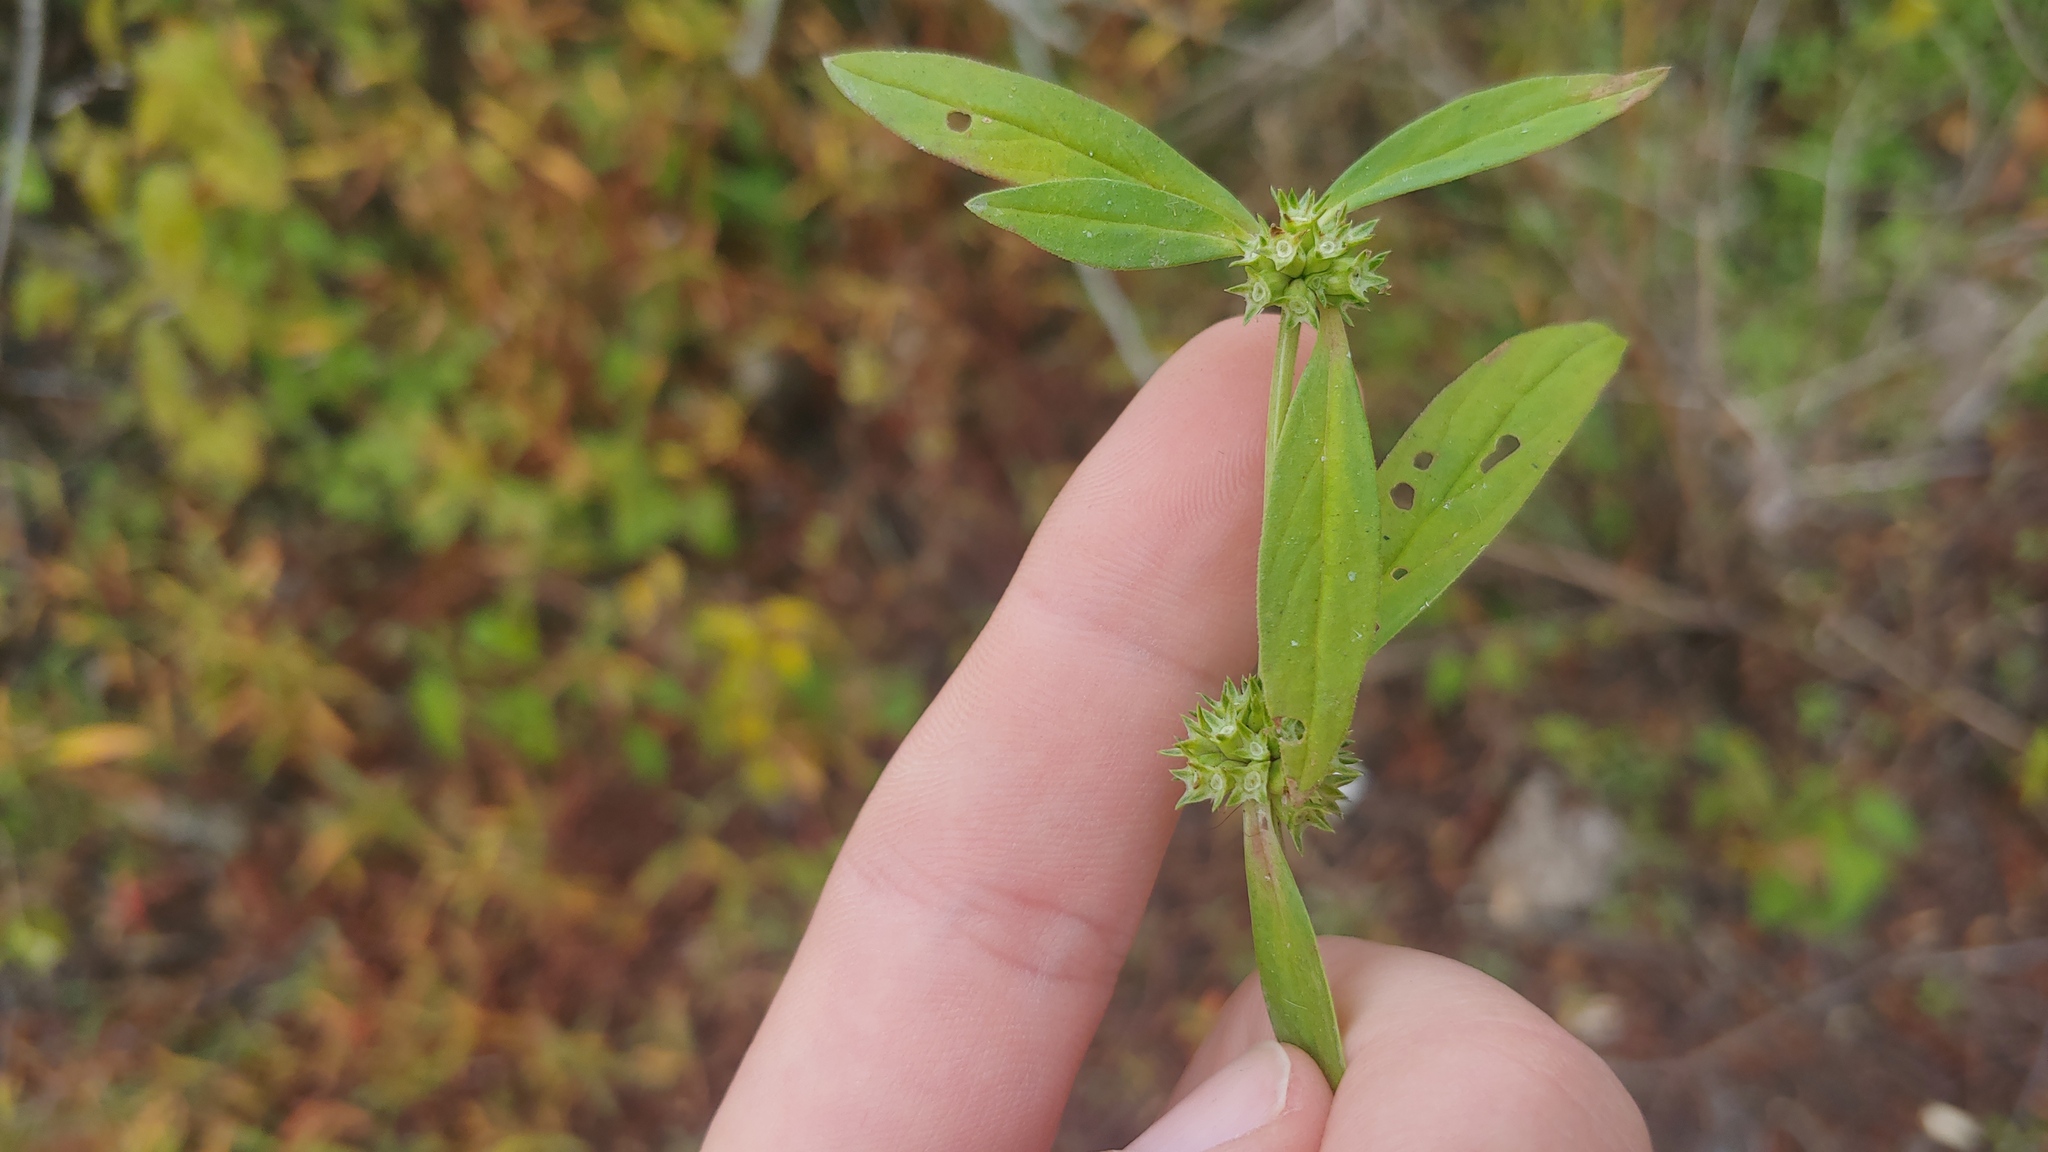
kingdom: Plantae
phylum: Tracheophyta
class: Magnoliopsida
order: Gentianales
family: Rubiaceae
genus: Spermacoce
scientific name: Spermacoce glabra
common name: Smooth buttonweed
